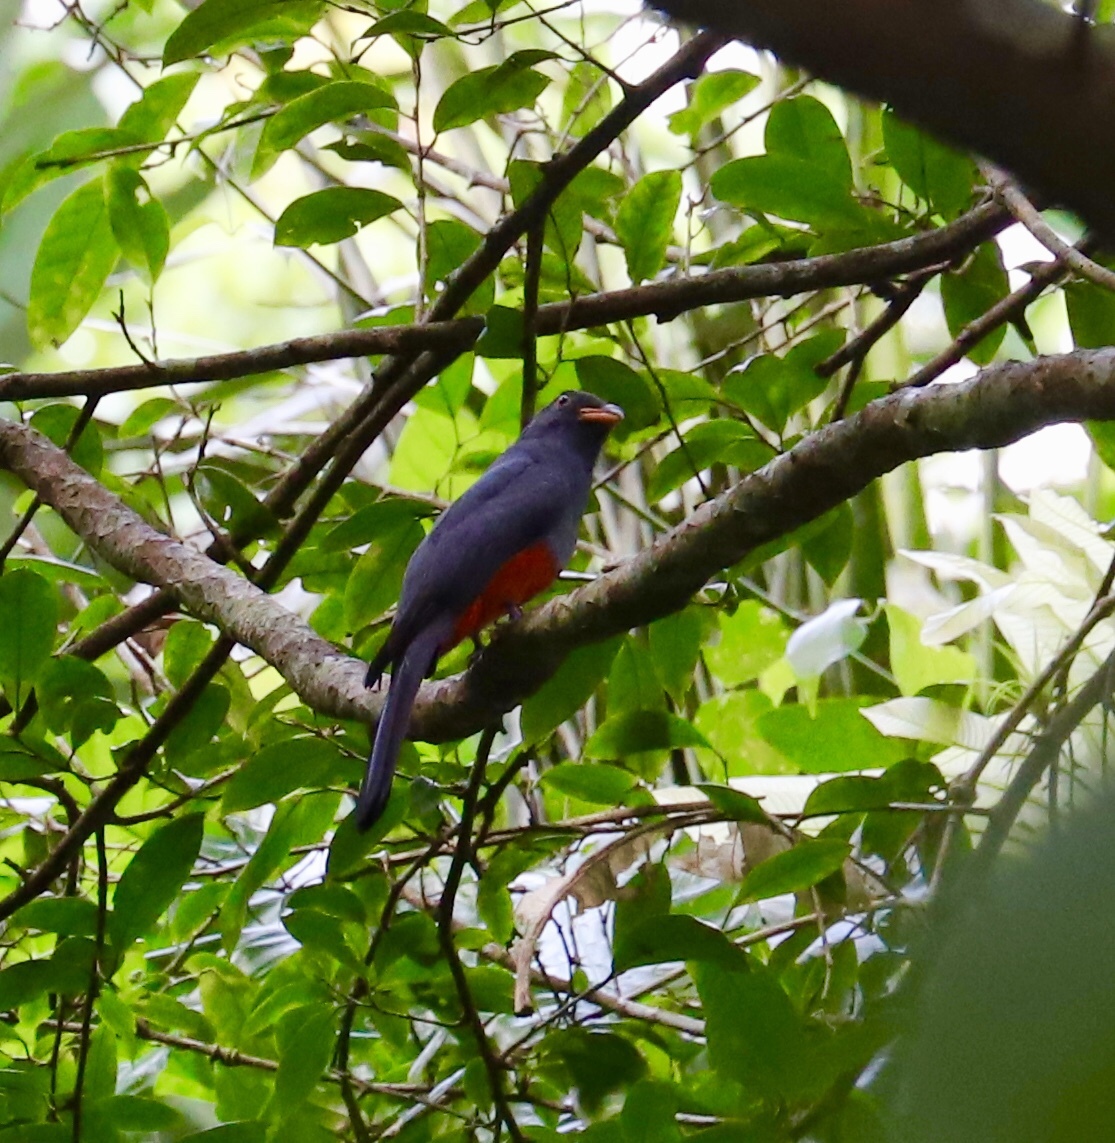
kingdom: Animalia
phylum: Chordata
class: Aves
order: Trogoniformes
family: Trogonidae
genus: Trogon
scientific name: Trogon massena
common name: Slaty-tailed trogon
